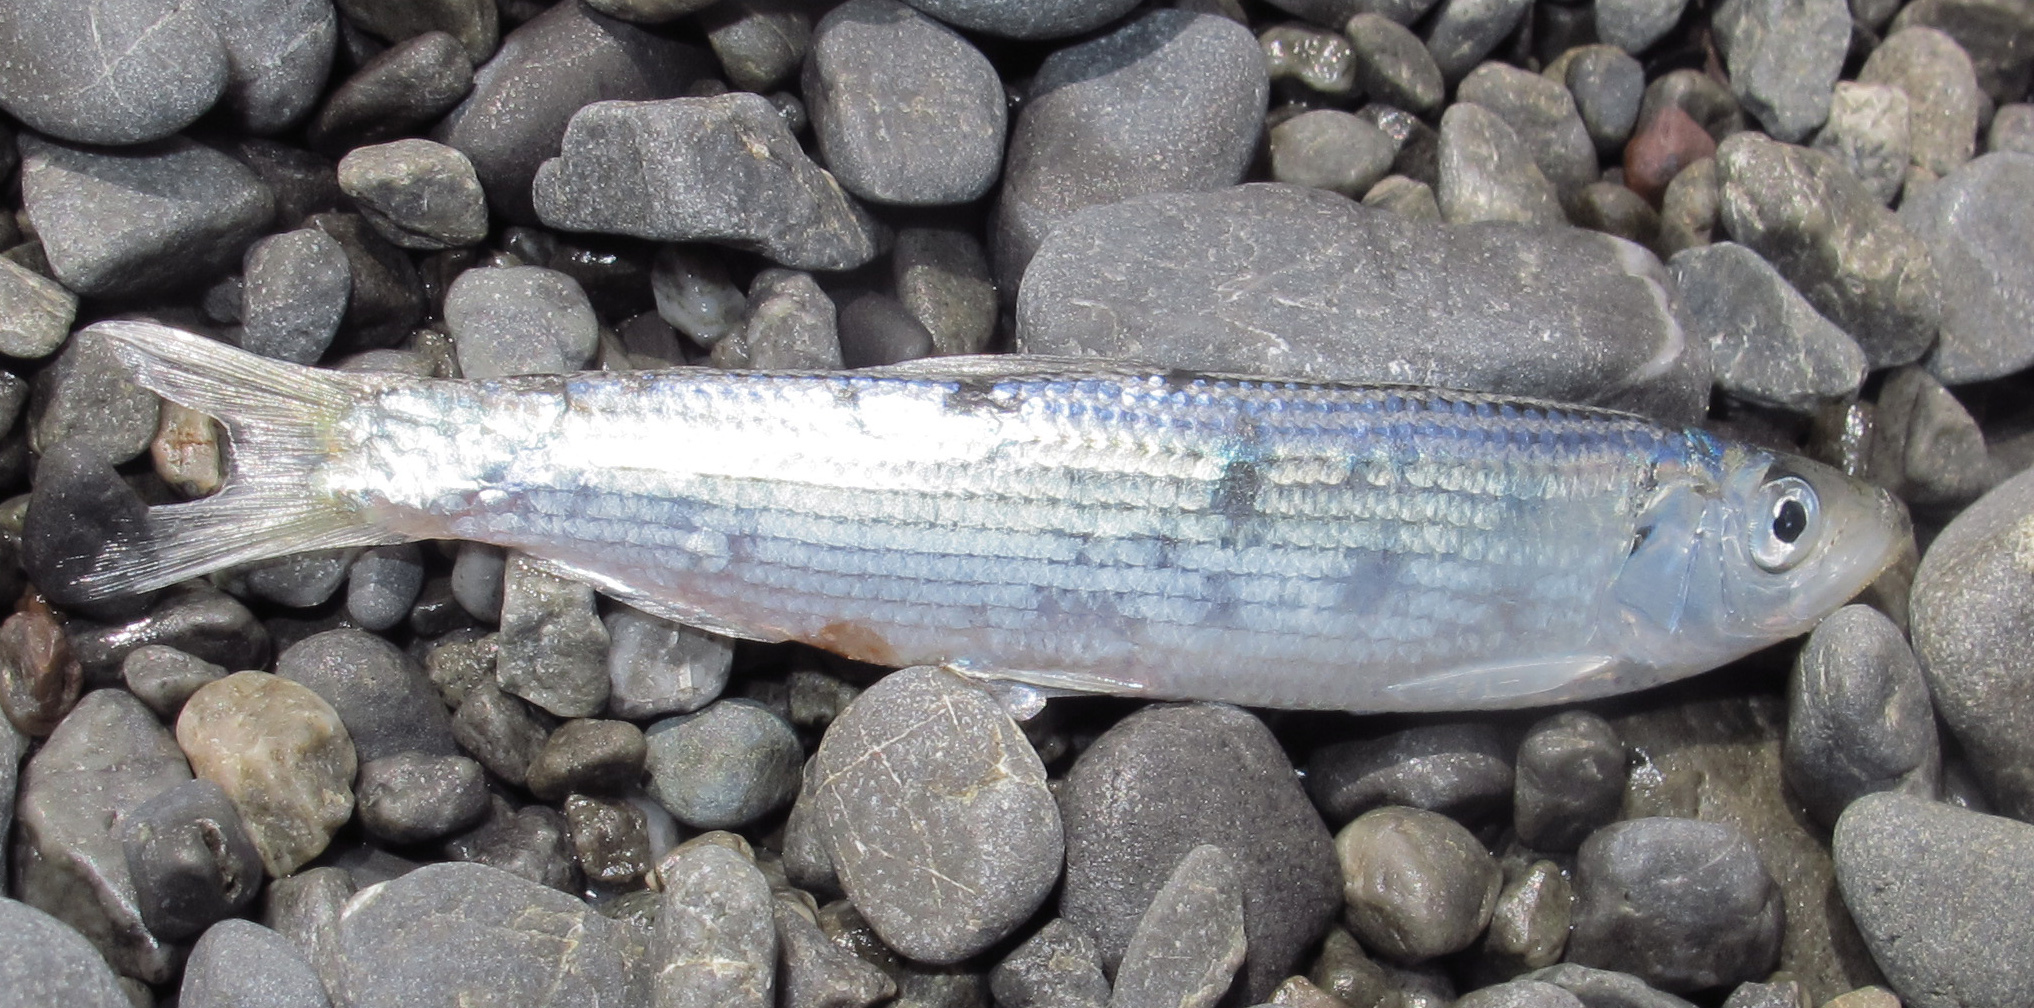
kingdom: Animalia
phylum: Chordata
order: Clupeiformes
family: Clupeidae
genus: Sardinops
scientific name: Sardinops sagax
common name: Pilchard
